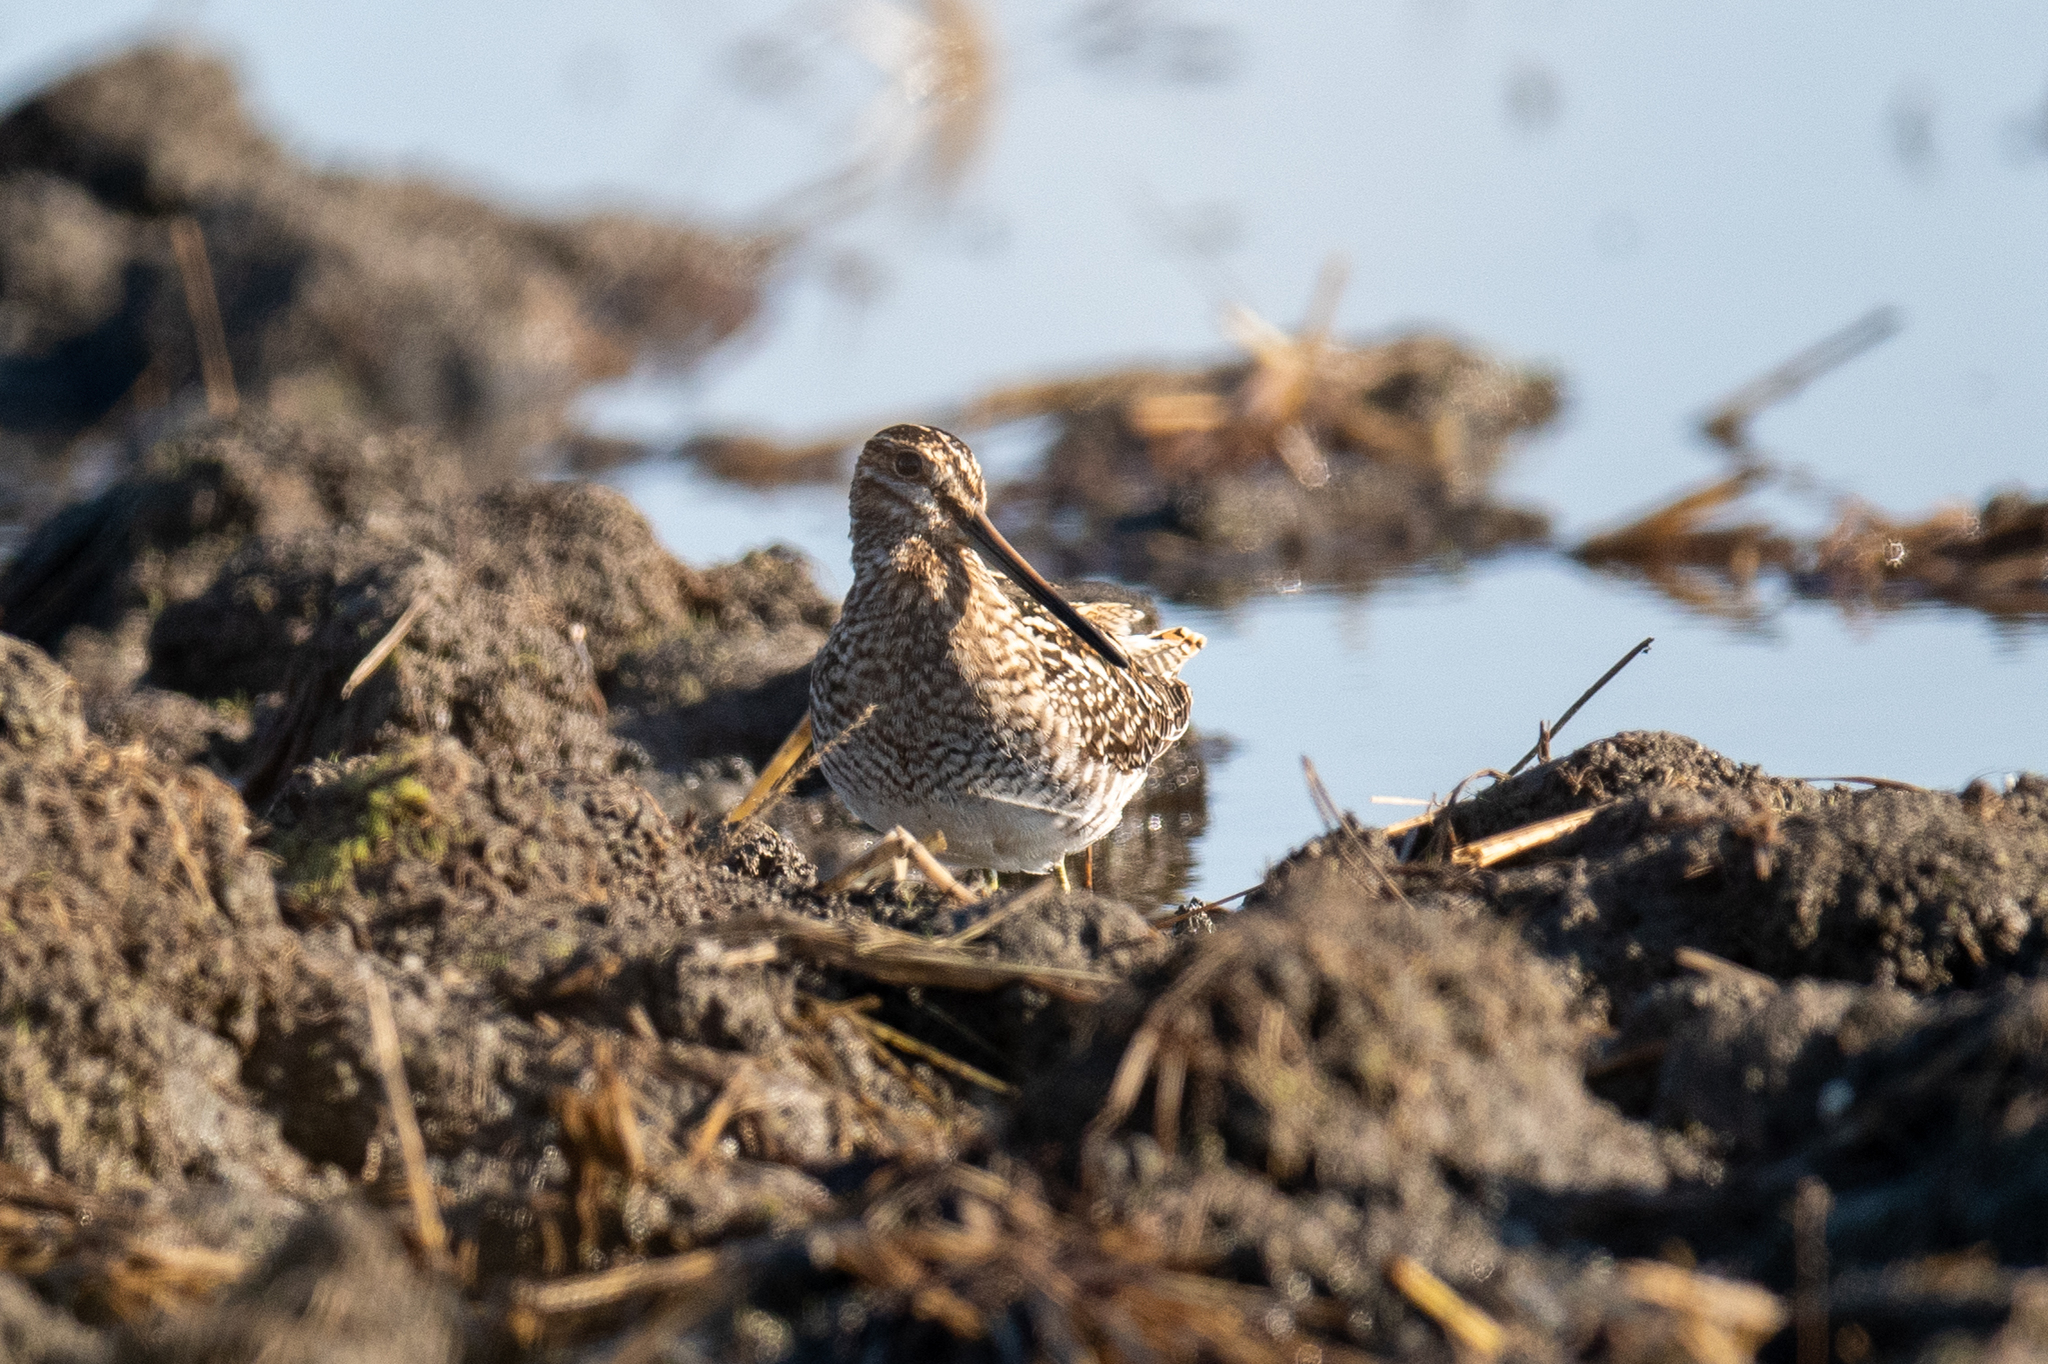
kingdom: Animalia
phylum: Chordata
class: Aves
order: Charadriiformes
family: Scolopacidae
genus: Gallinago
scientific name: Gallinago delicata
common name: Wilson's snipe
